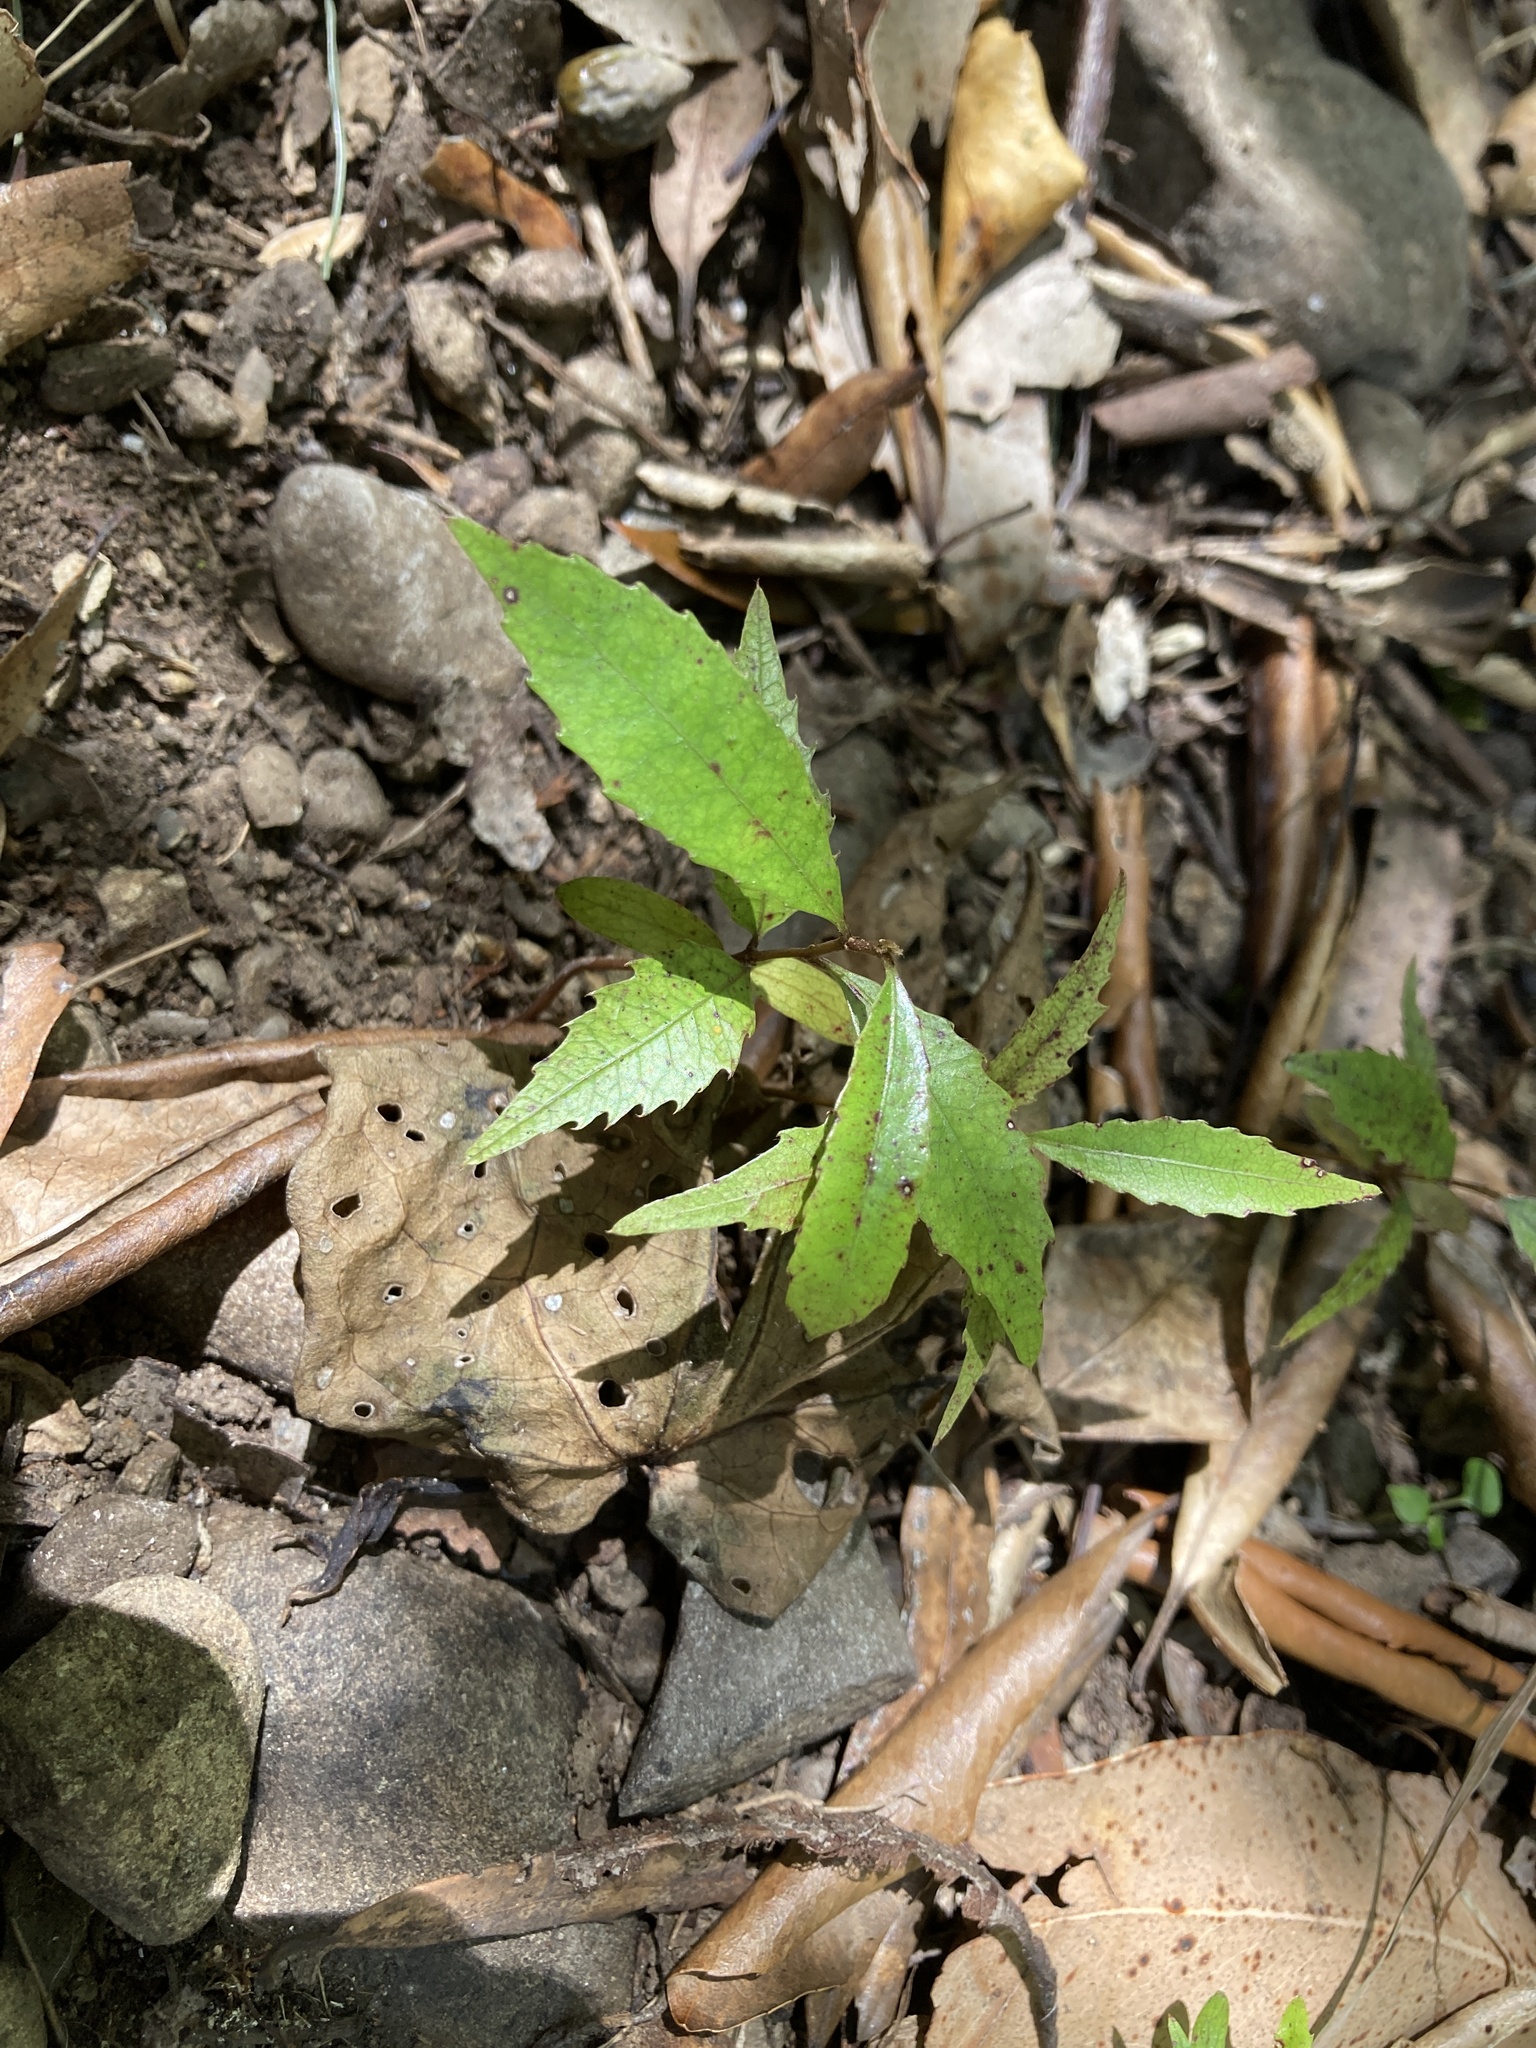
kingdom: Plantae
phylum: Tracheophyta
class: Magnoliopsida
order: Oxalidales
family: Elaeocarpaceae
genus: Elaeocarpus
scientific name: Elaeocarpus dentatus
